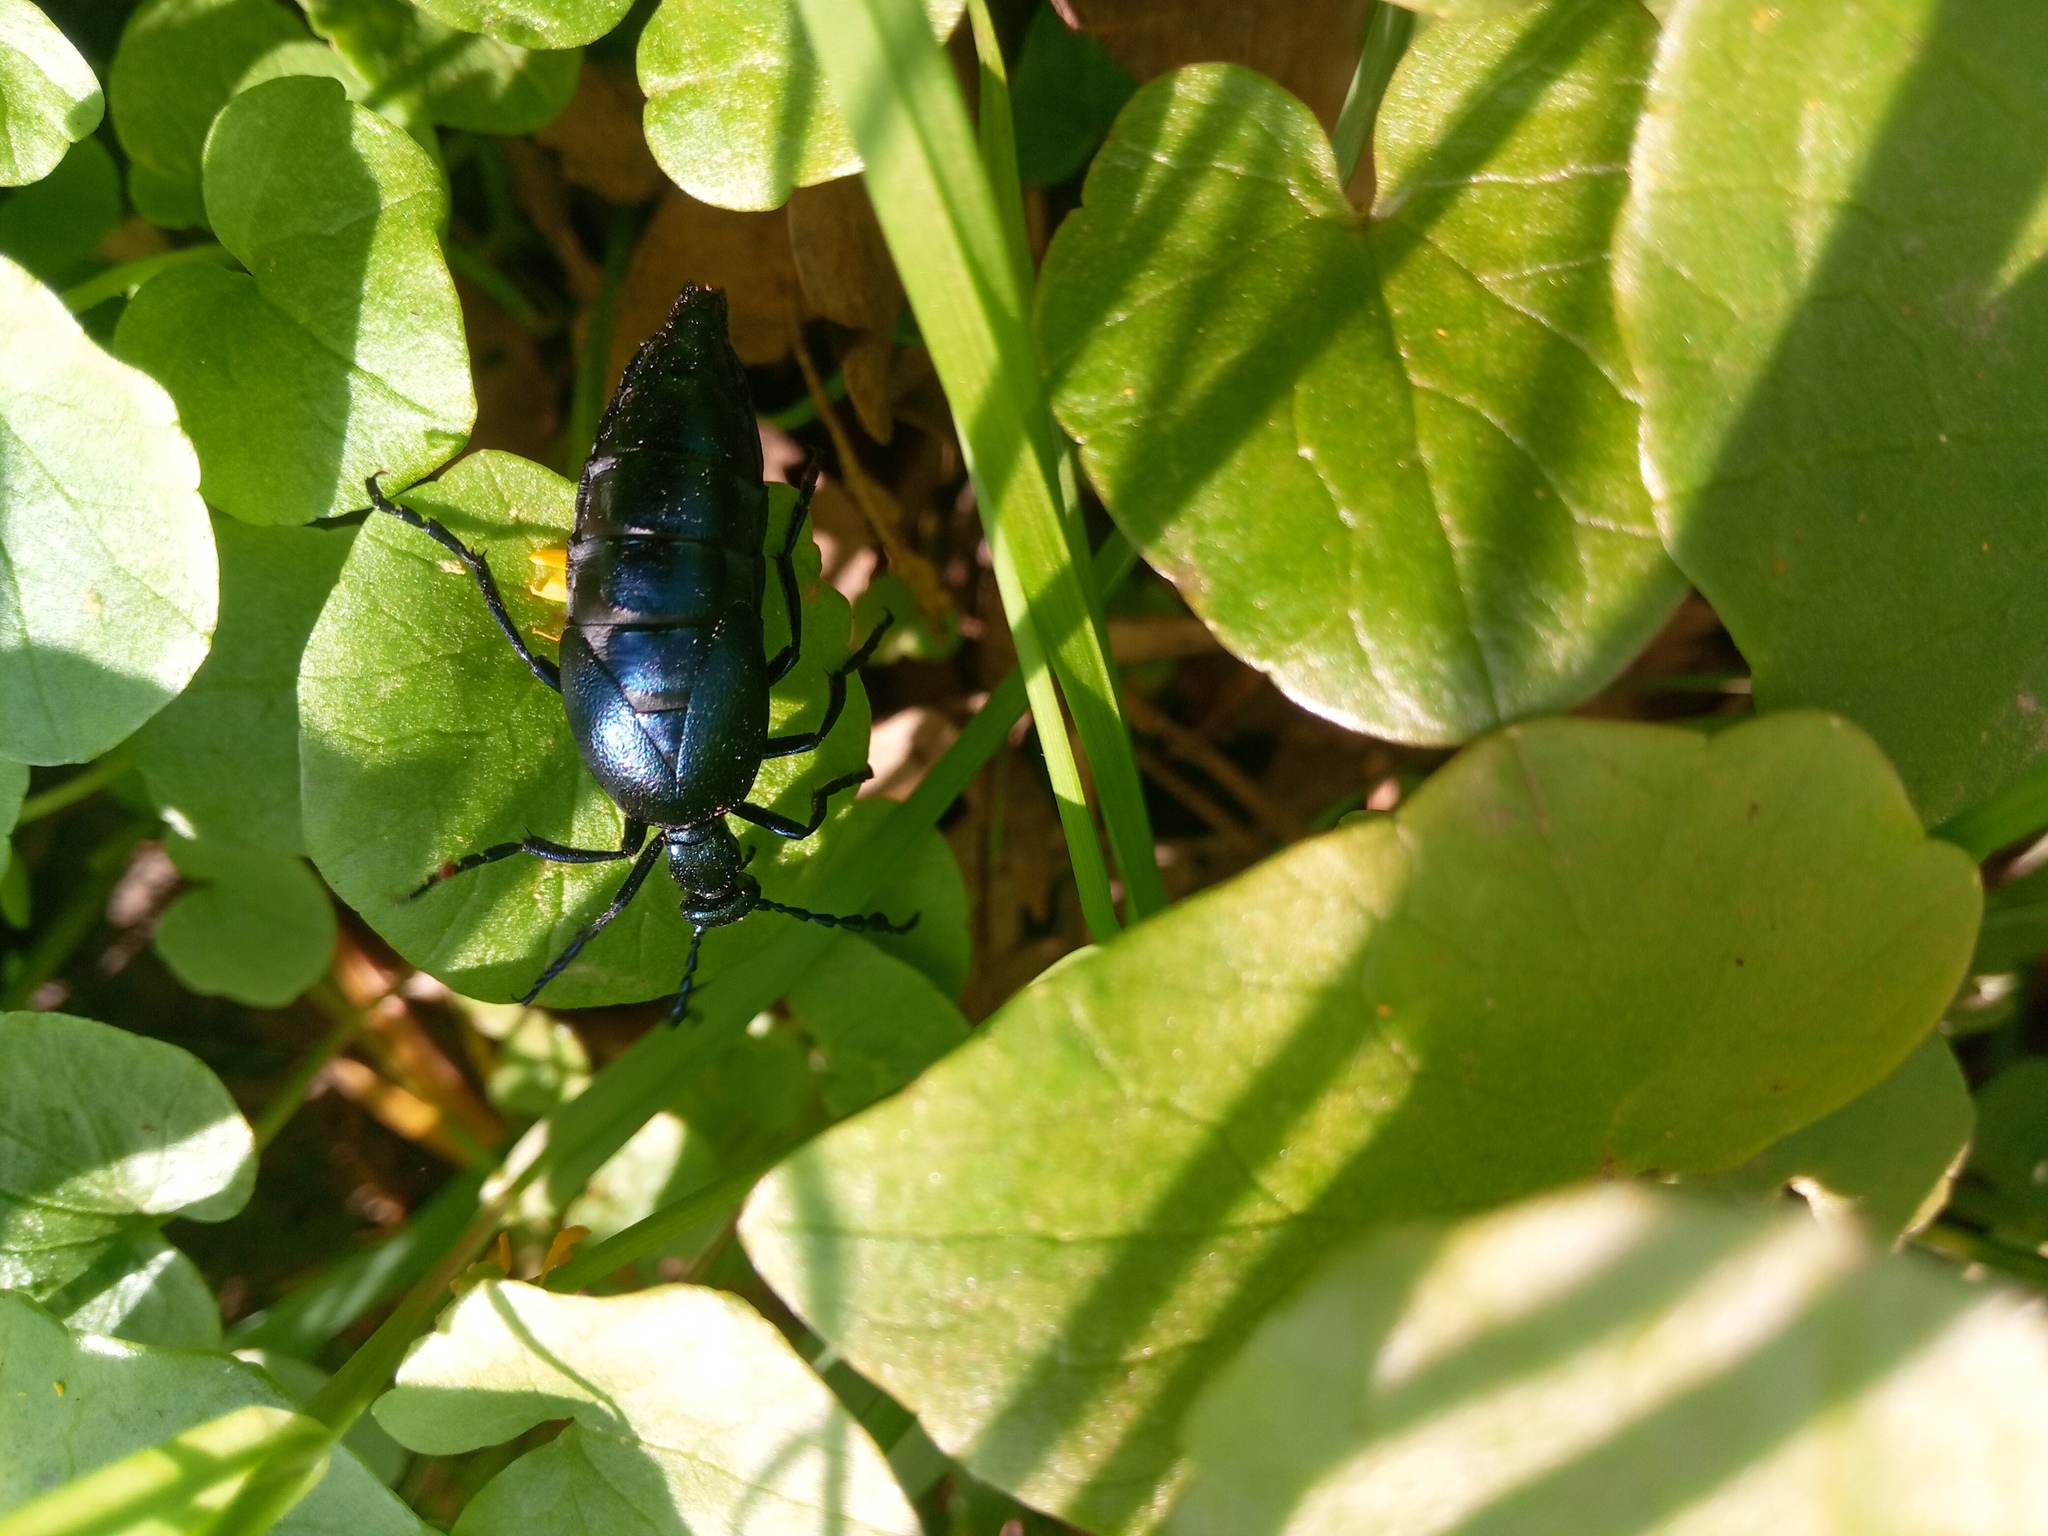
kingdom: Animalia
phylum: Arthropoda
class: Insecta
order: Coleoptera
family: Meloidae
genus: Meloe
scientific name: Meloe violaceus
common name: Violet oil-beetle
